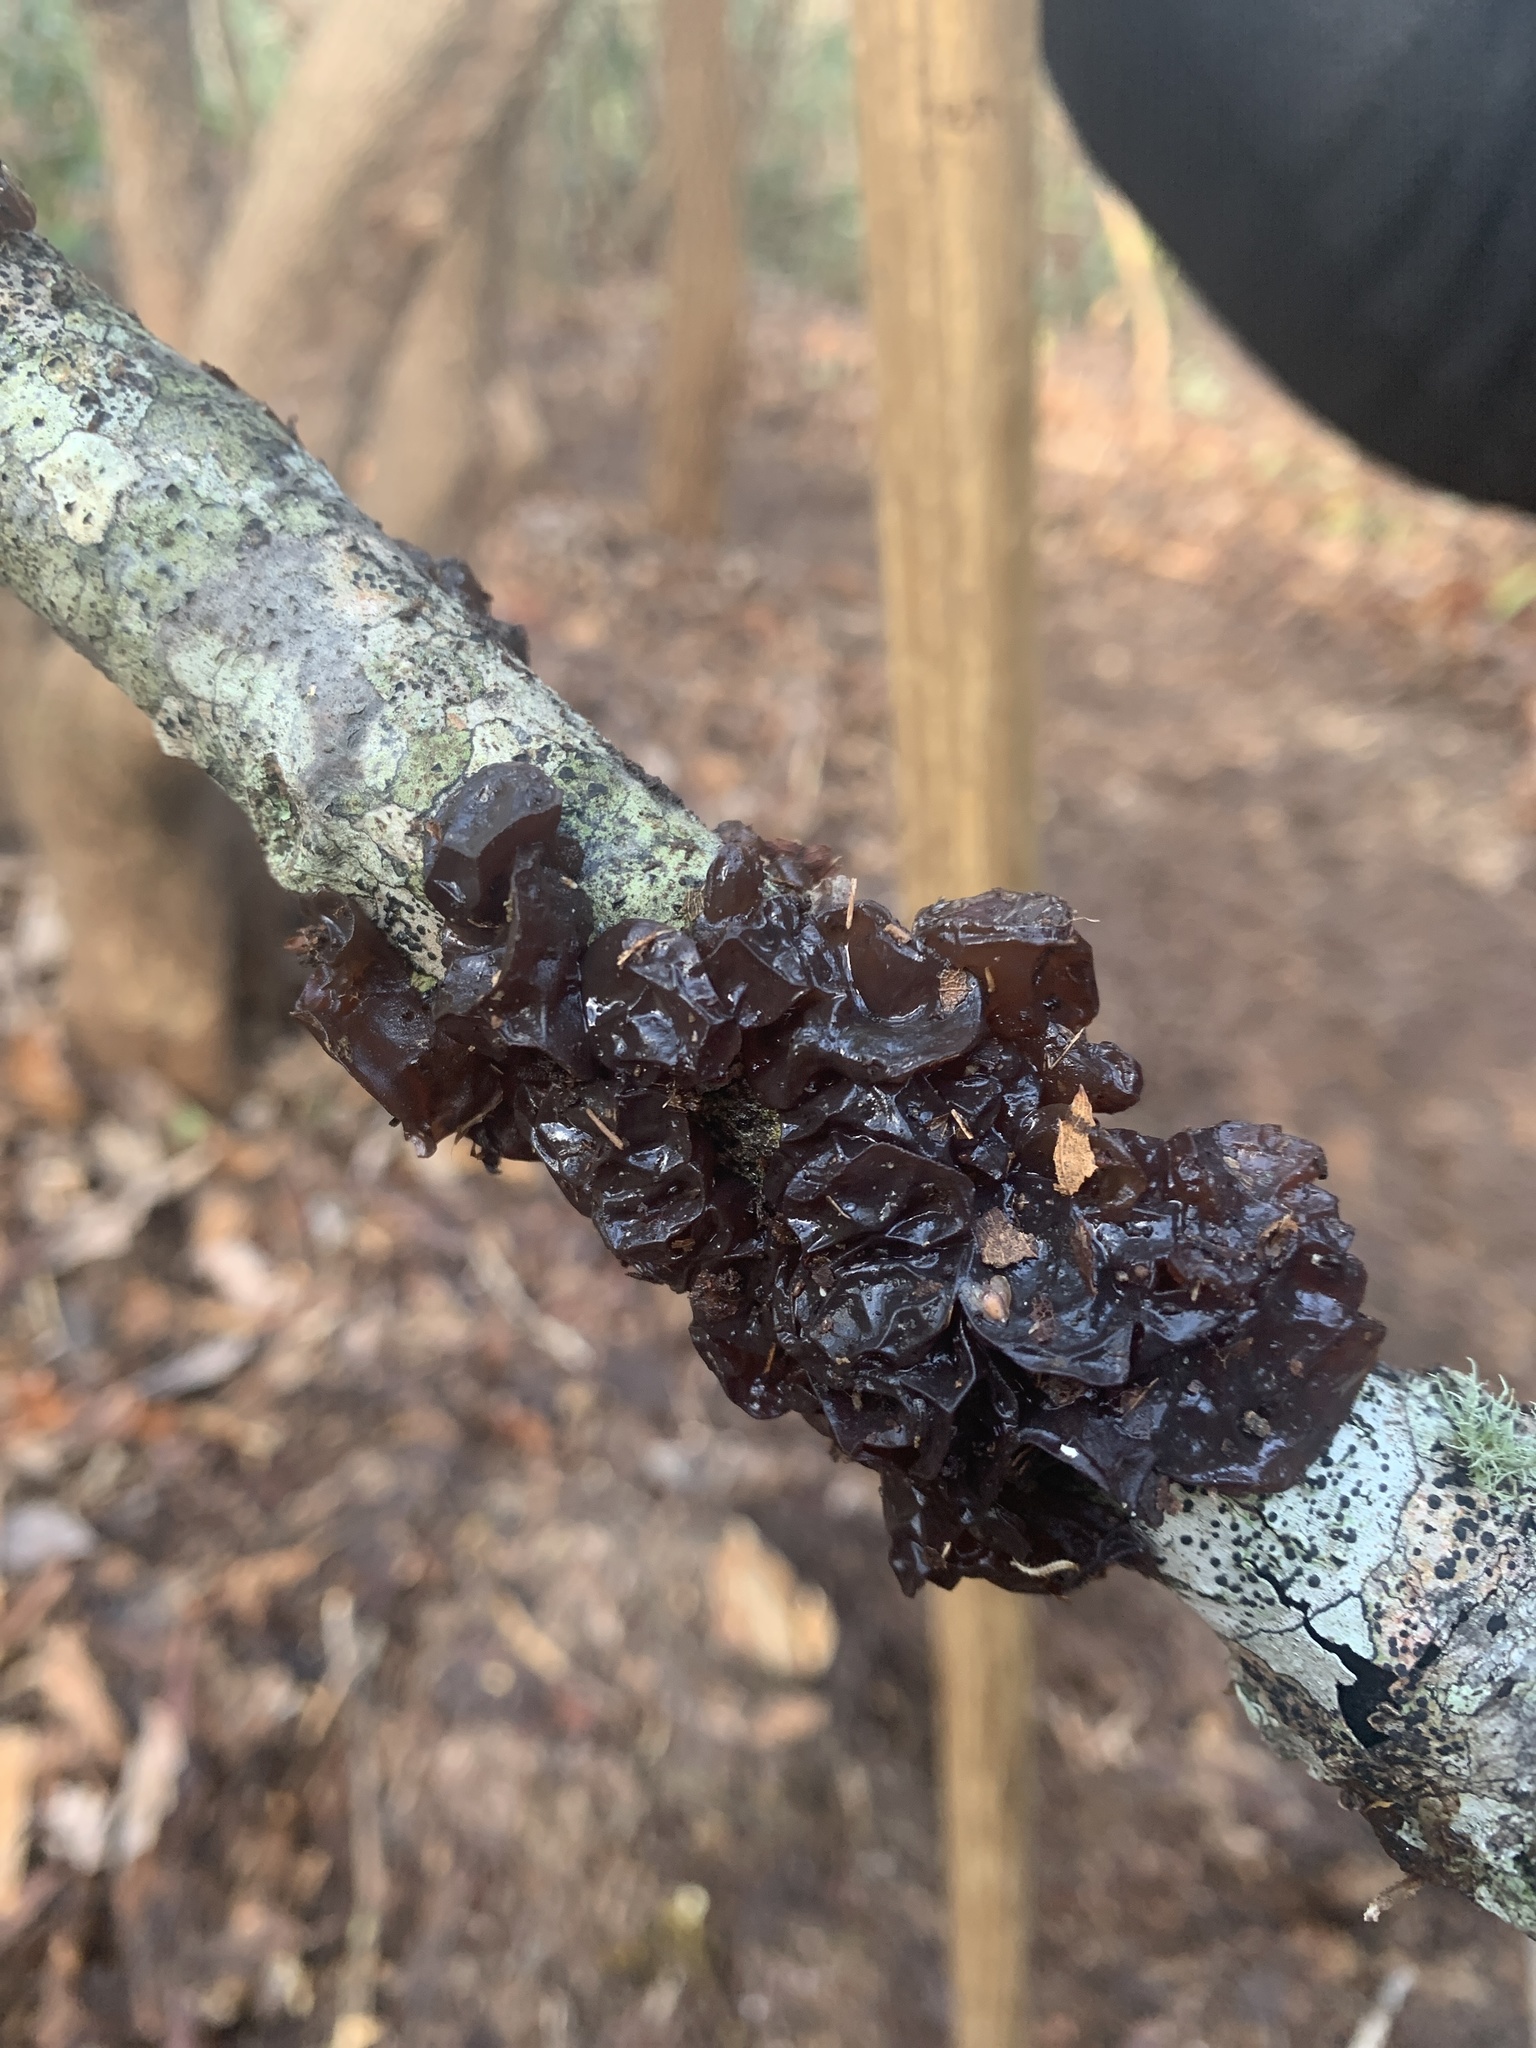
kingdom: Fungi
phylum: Basidiomycota
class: Agaricomycetes
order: Auriculariales
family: Auriculariaceae
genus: Exidia
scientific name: Exidia
